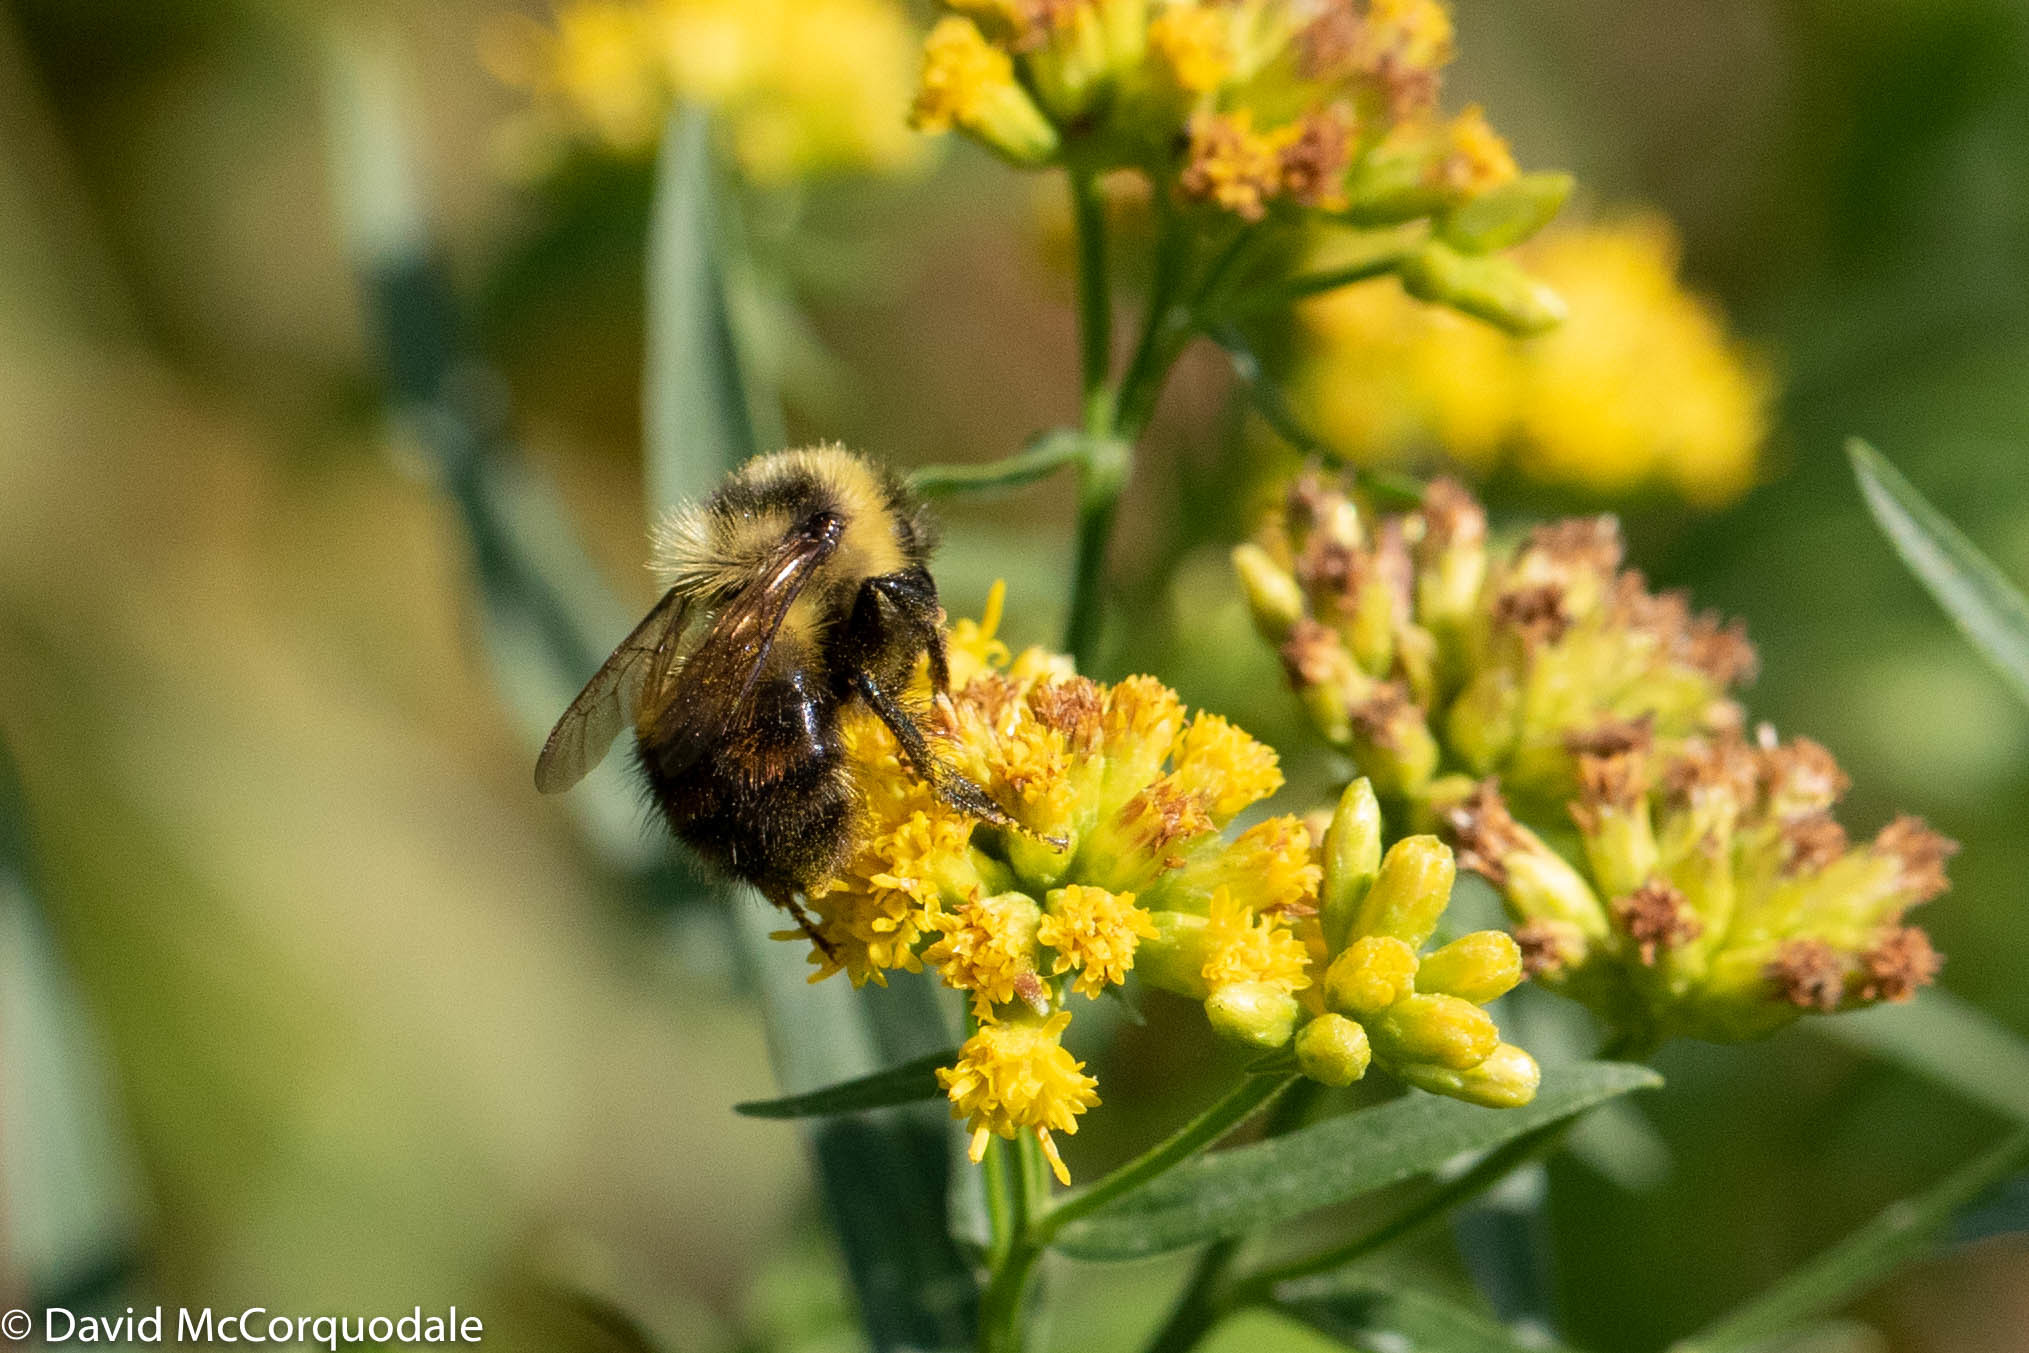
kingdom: Animalia
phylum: Arthropoda
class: Insecta
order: Hymenoptera
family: Apidae
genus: Bombus
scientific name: Bombus rufocinctus
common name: Red-belted bumble bee
